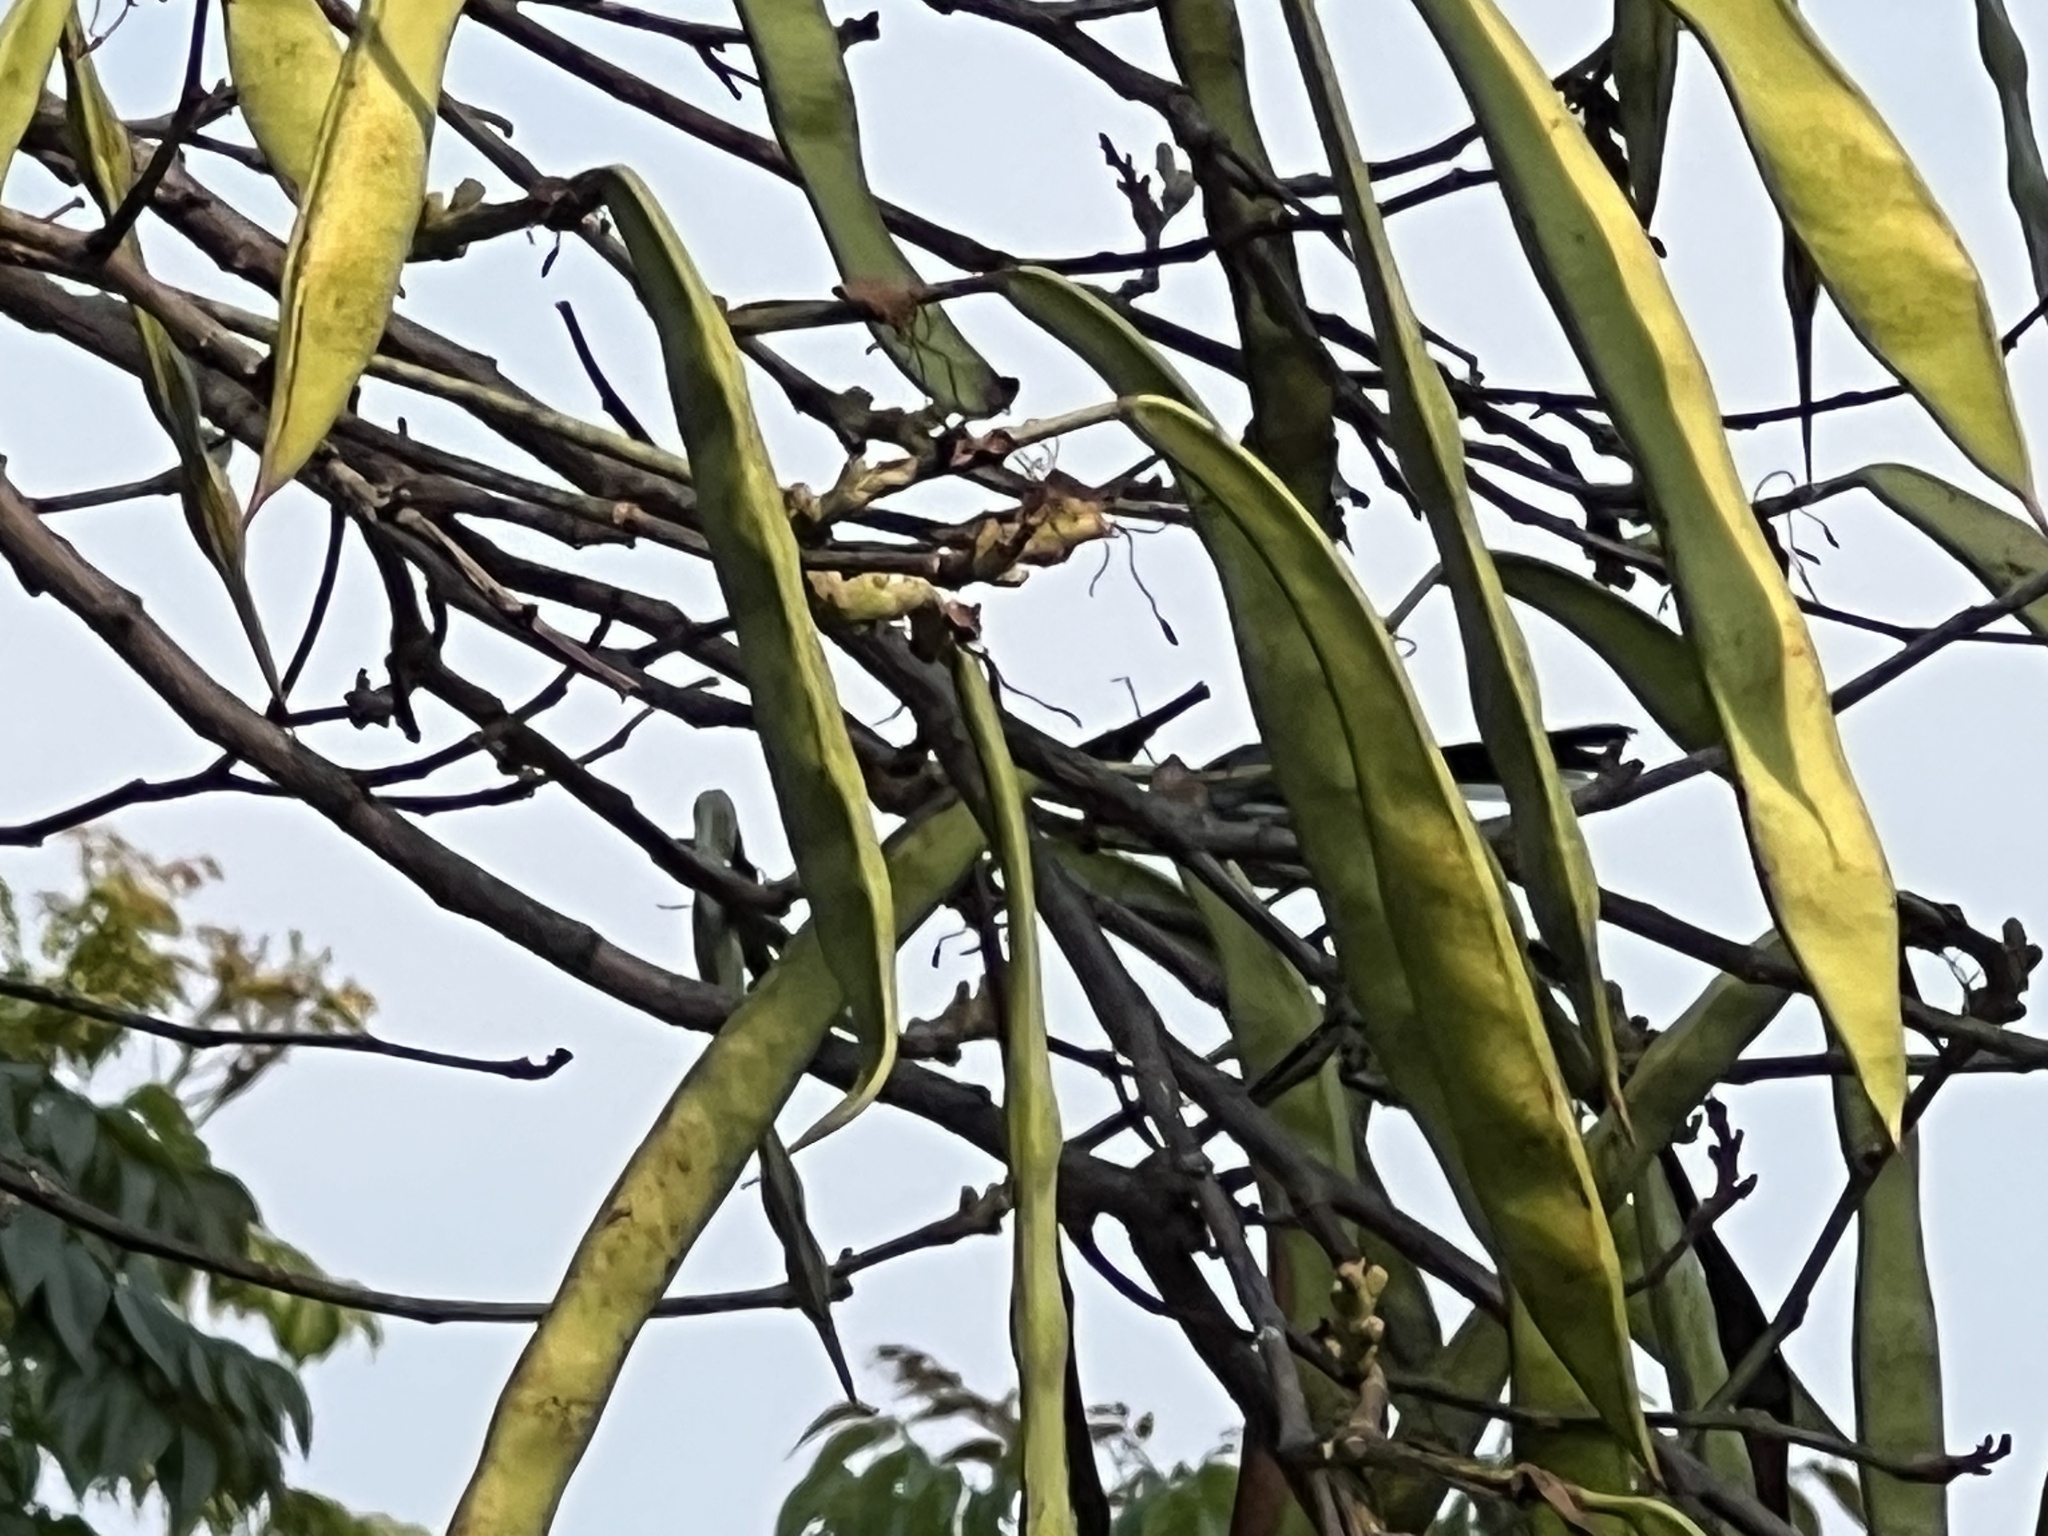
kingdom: Animalia
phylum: Chordata
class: Aves
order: Passeriformes
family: Polioptilidae
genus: Polioptila
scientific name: Polioptila dumicola
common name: Masked gnatcatcher
